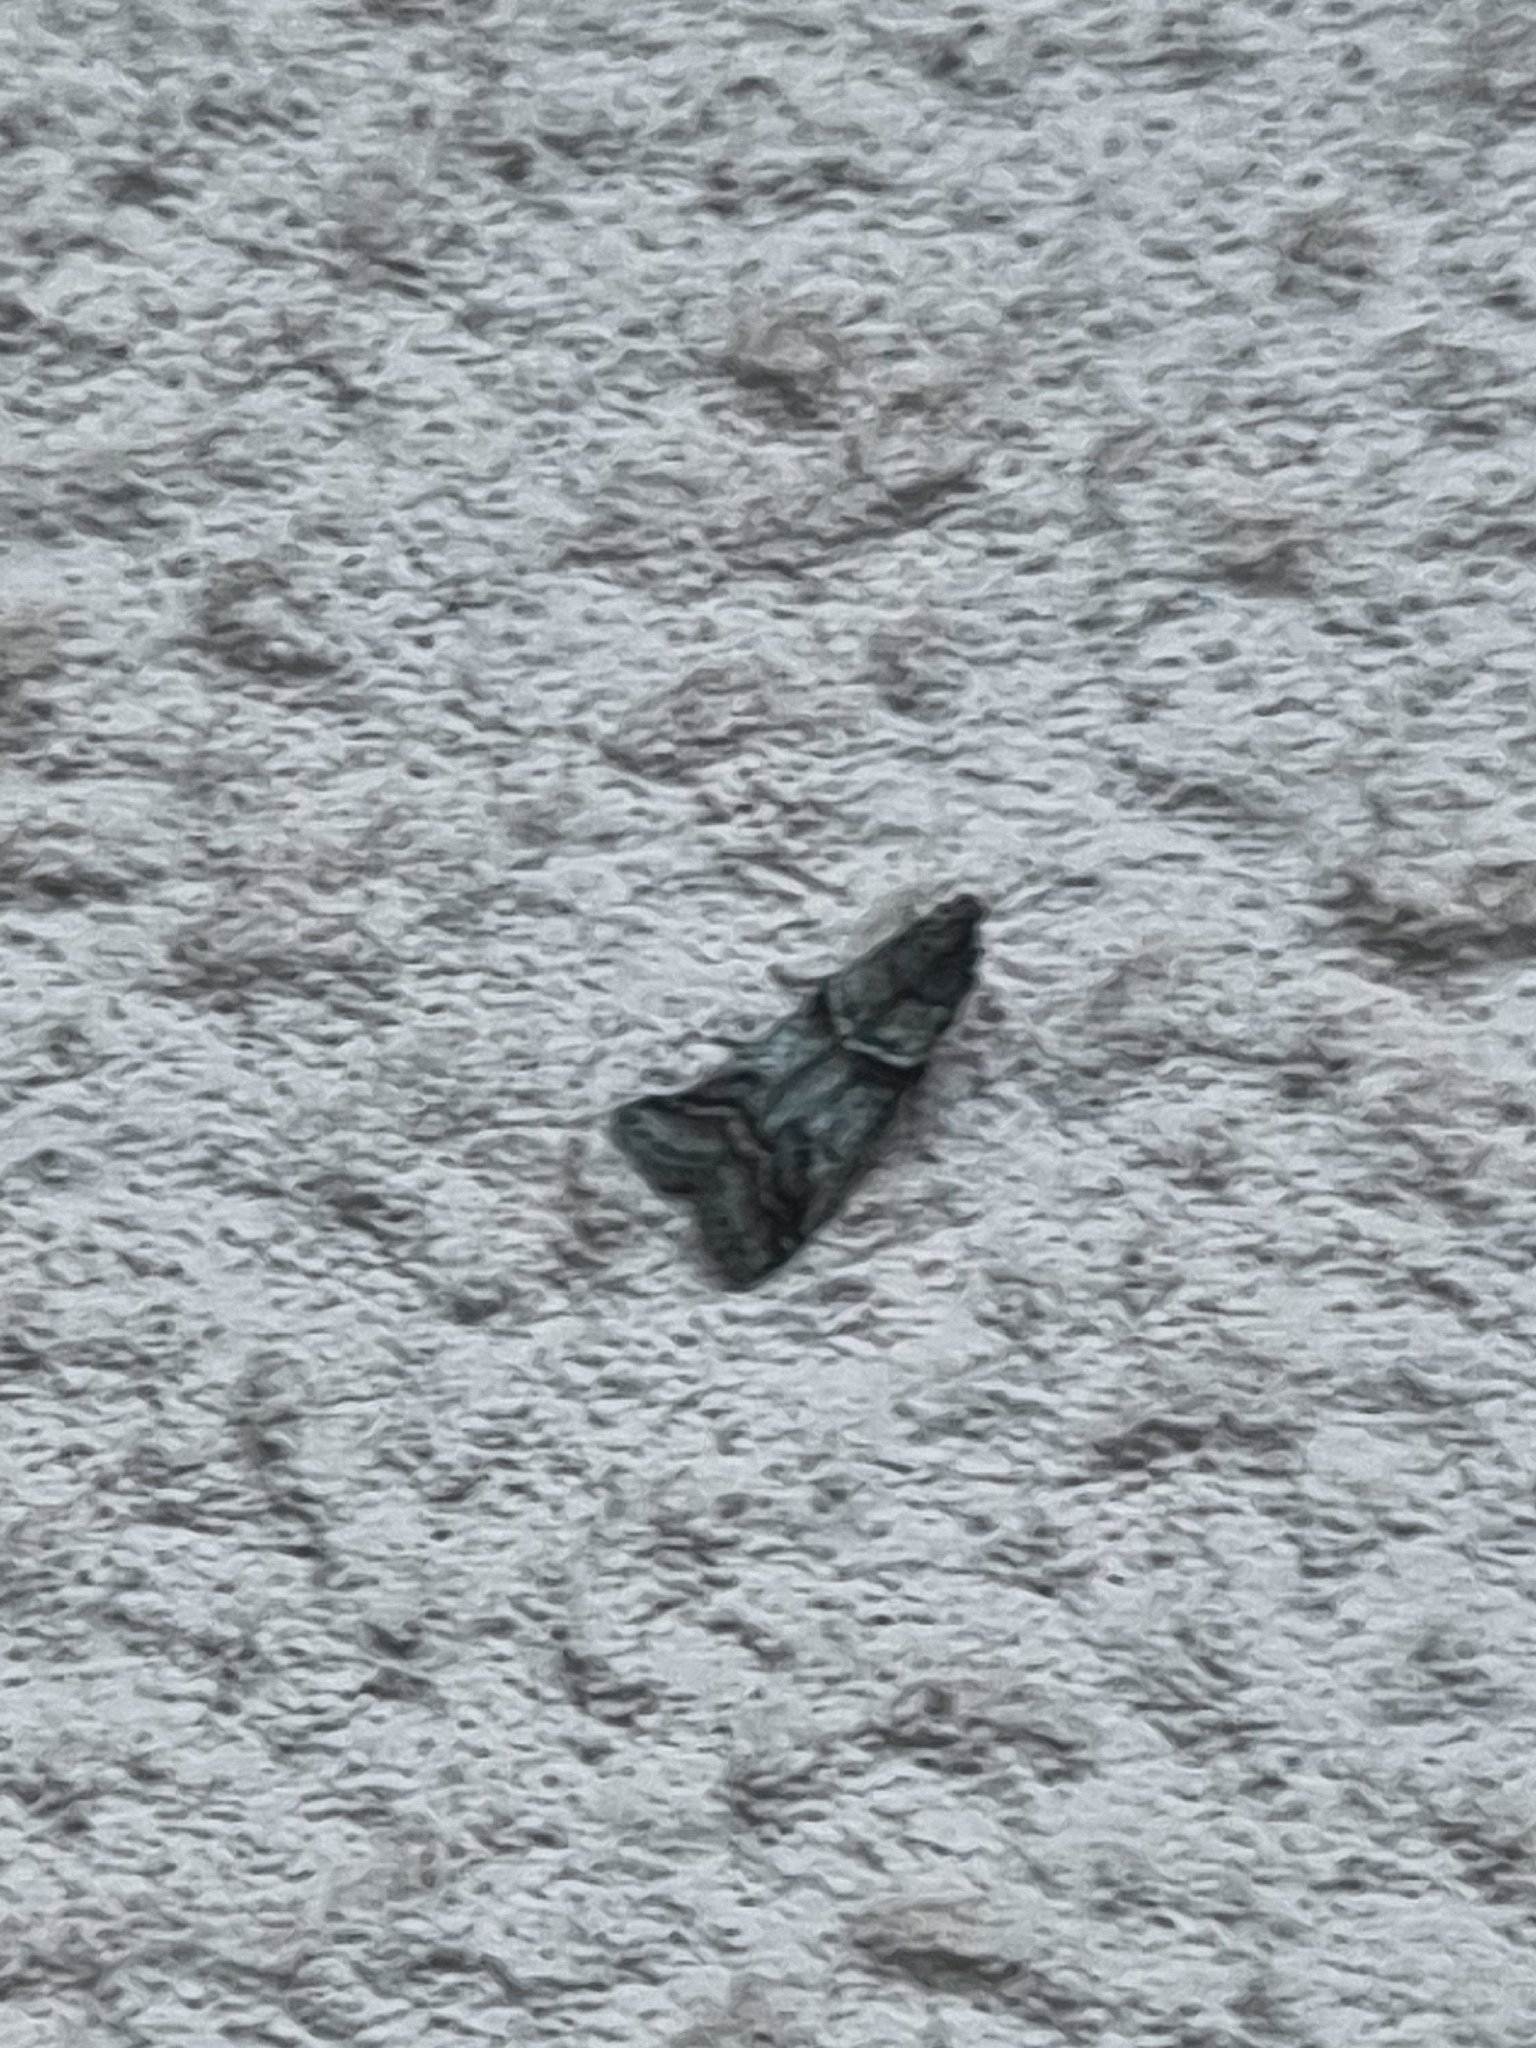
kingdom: Animalia
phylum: Arthropoda
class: Insecta
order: Lepidoptera
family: Pyralidae
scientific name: Pyralidae
